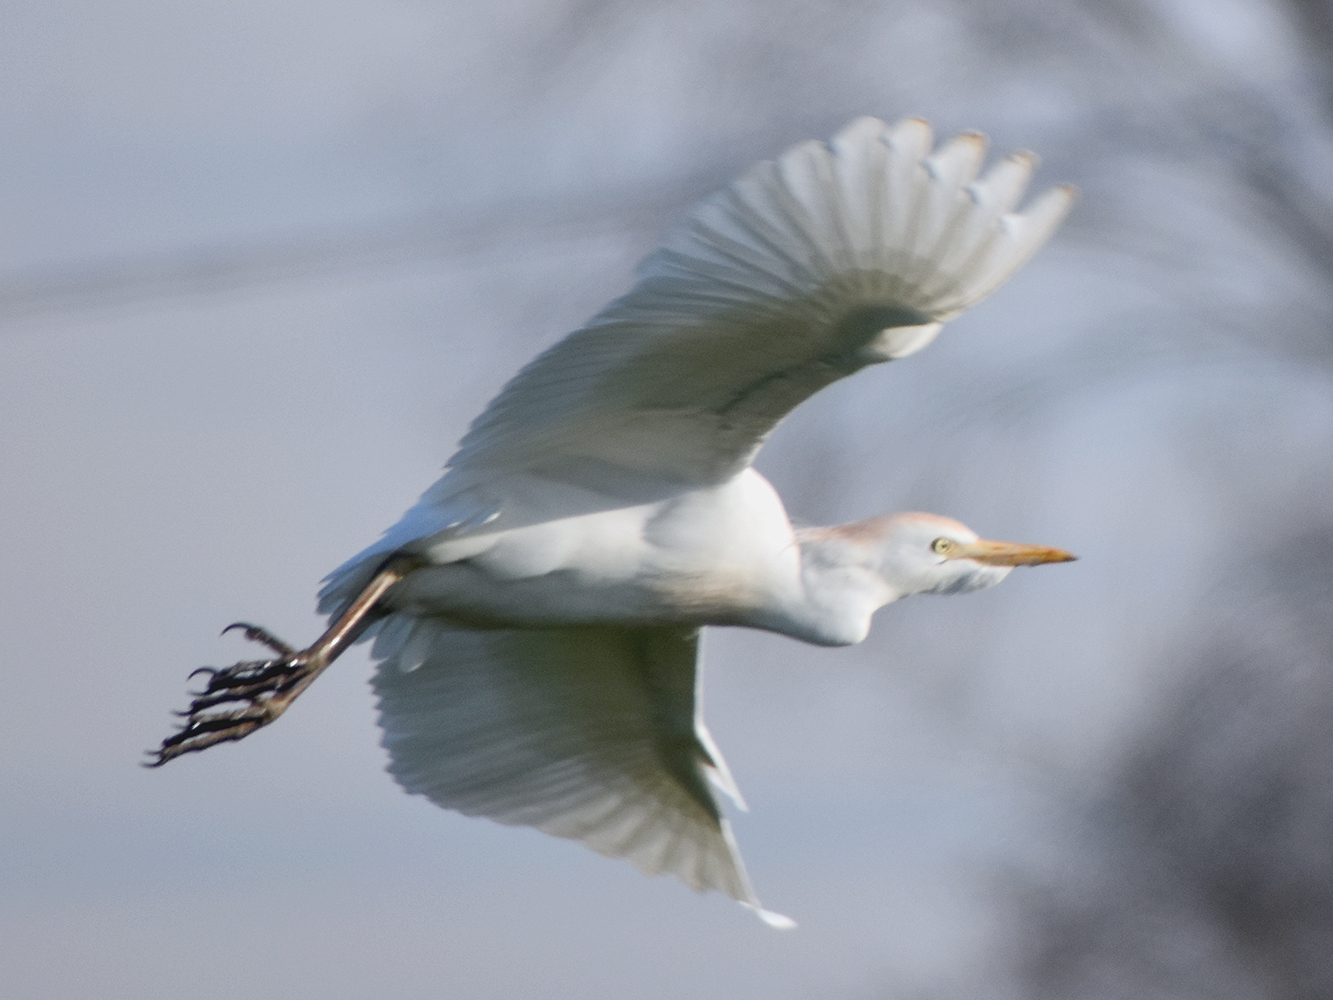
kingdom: Animalia
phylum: Chordata
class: Aves
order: Pelecaniformes
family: Ardeidae
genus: Bubulcus
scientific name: Bubulcus ibis
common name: Cattle egret
